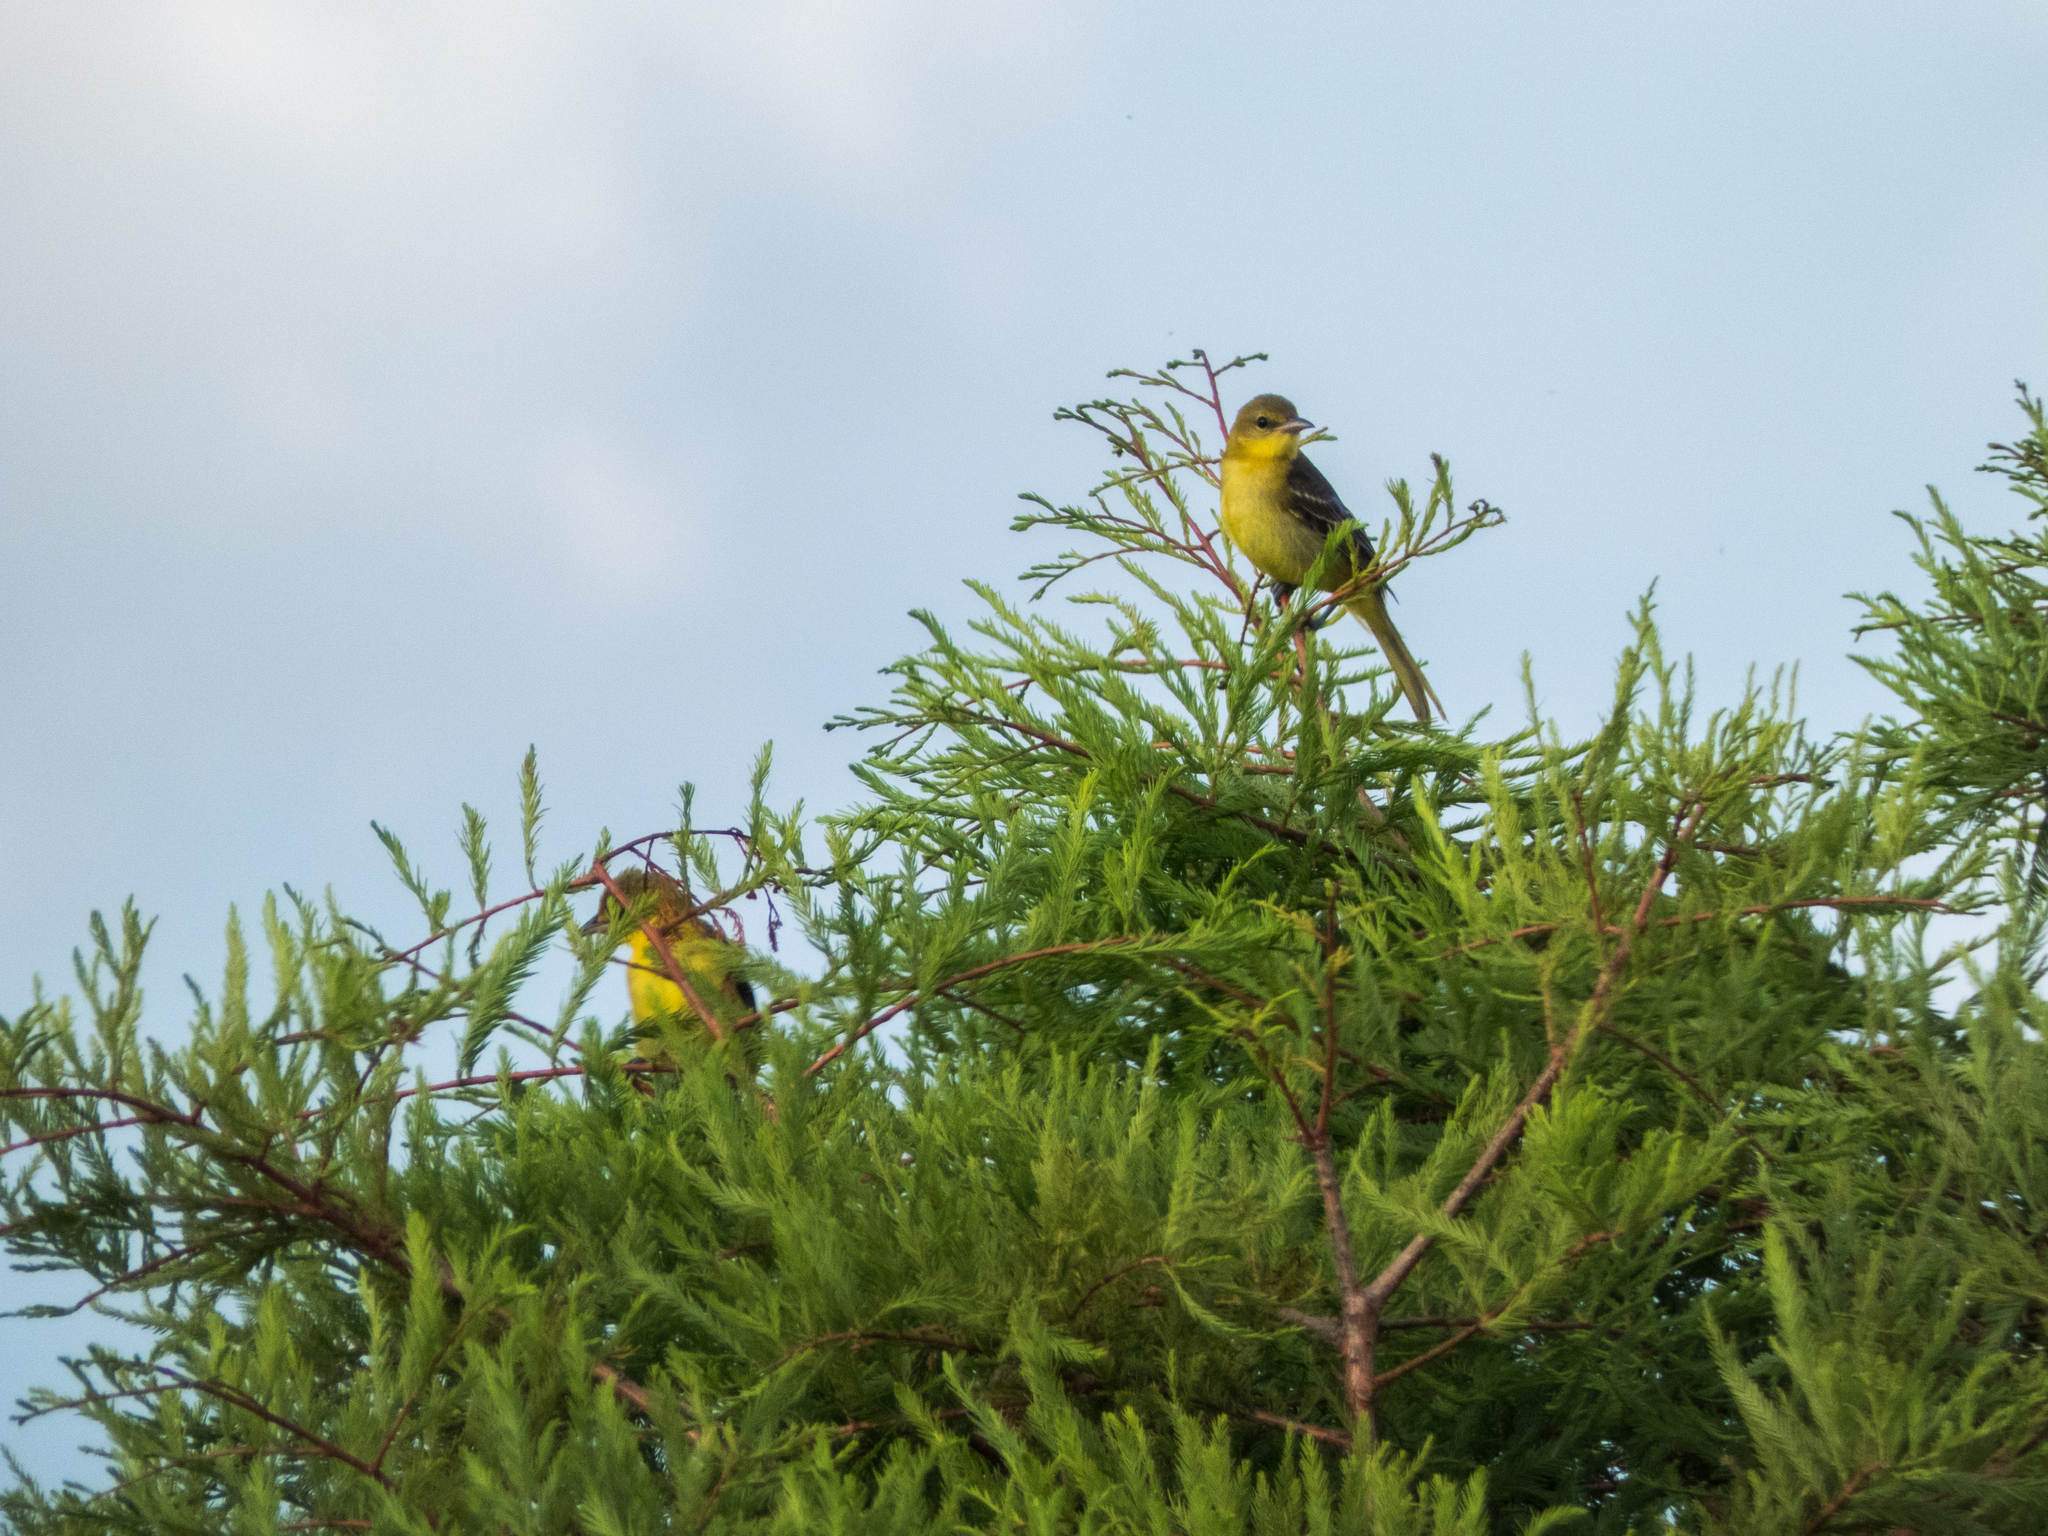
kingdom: Animalia
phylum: Chordata
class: Aves
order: Passeriformes
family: Icteridae
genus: Icterus
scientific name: Icterus spurius
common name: Orchard oriole
